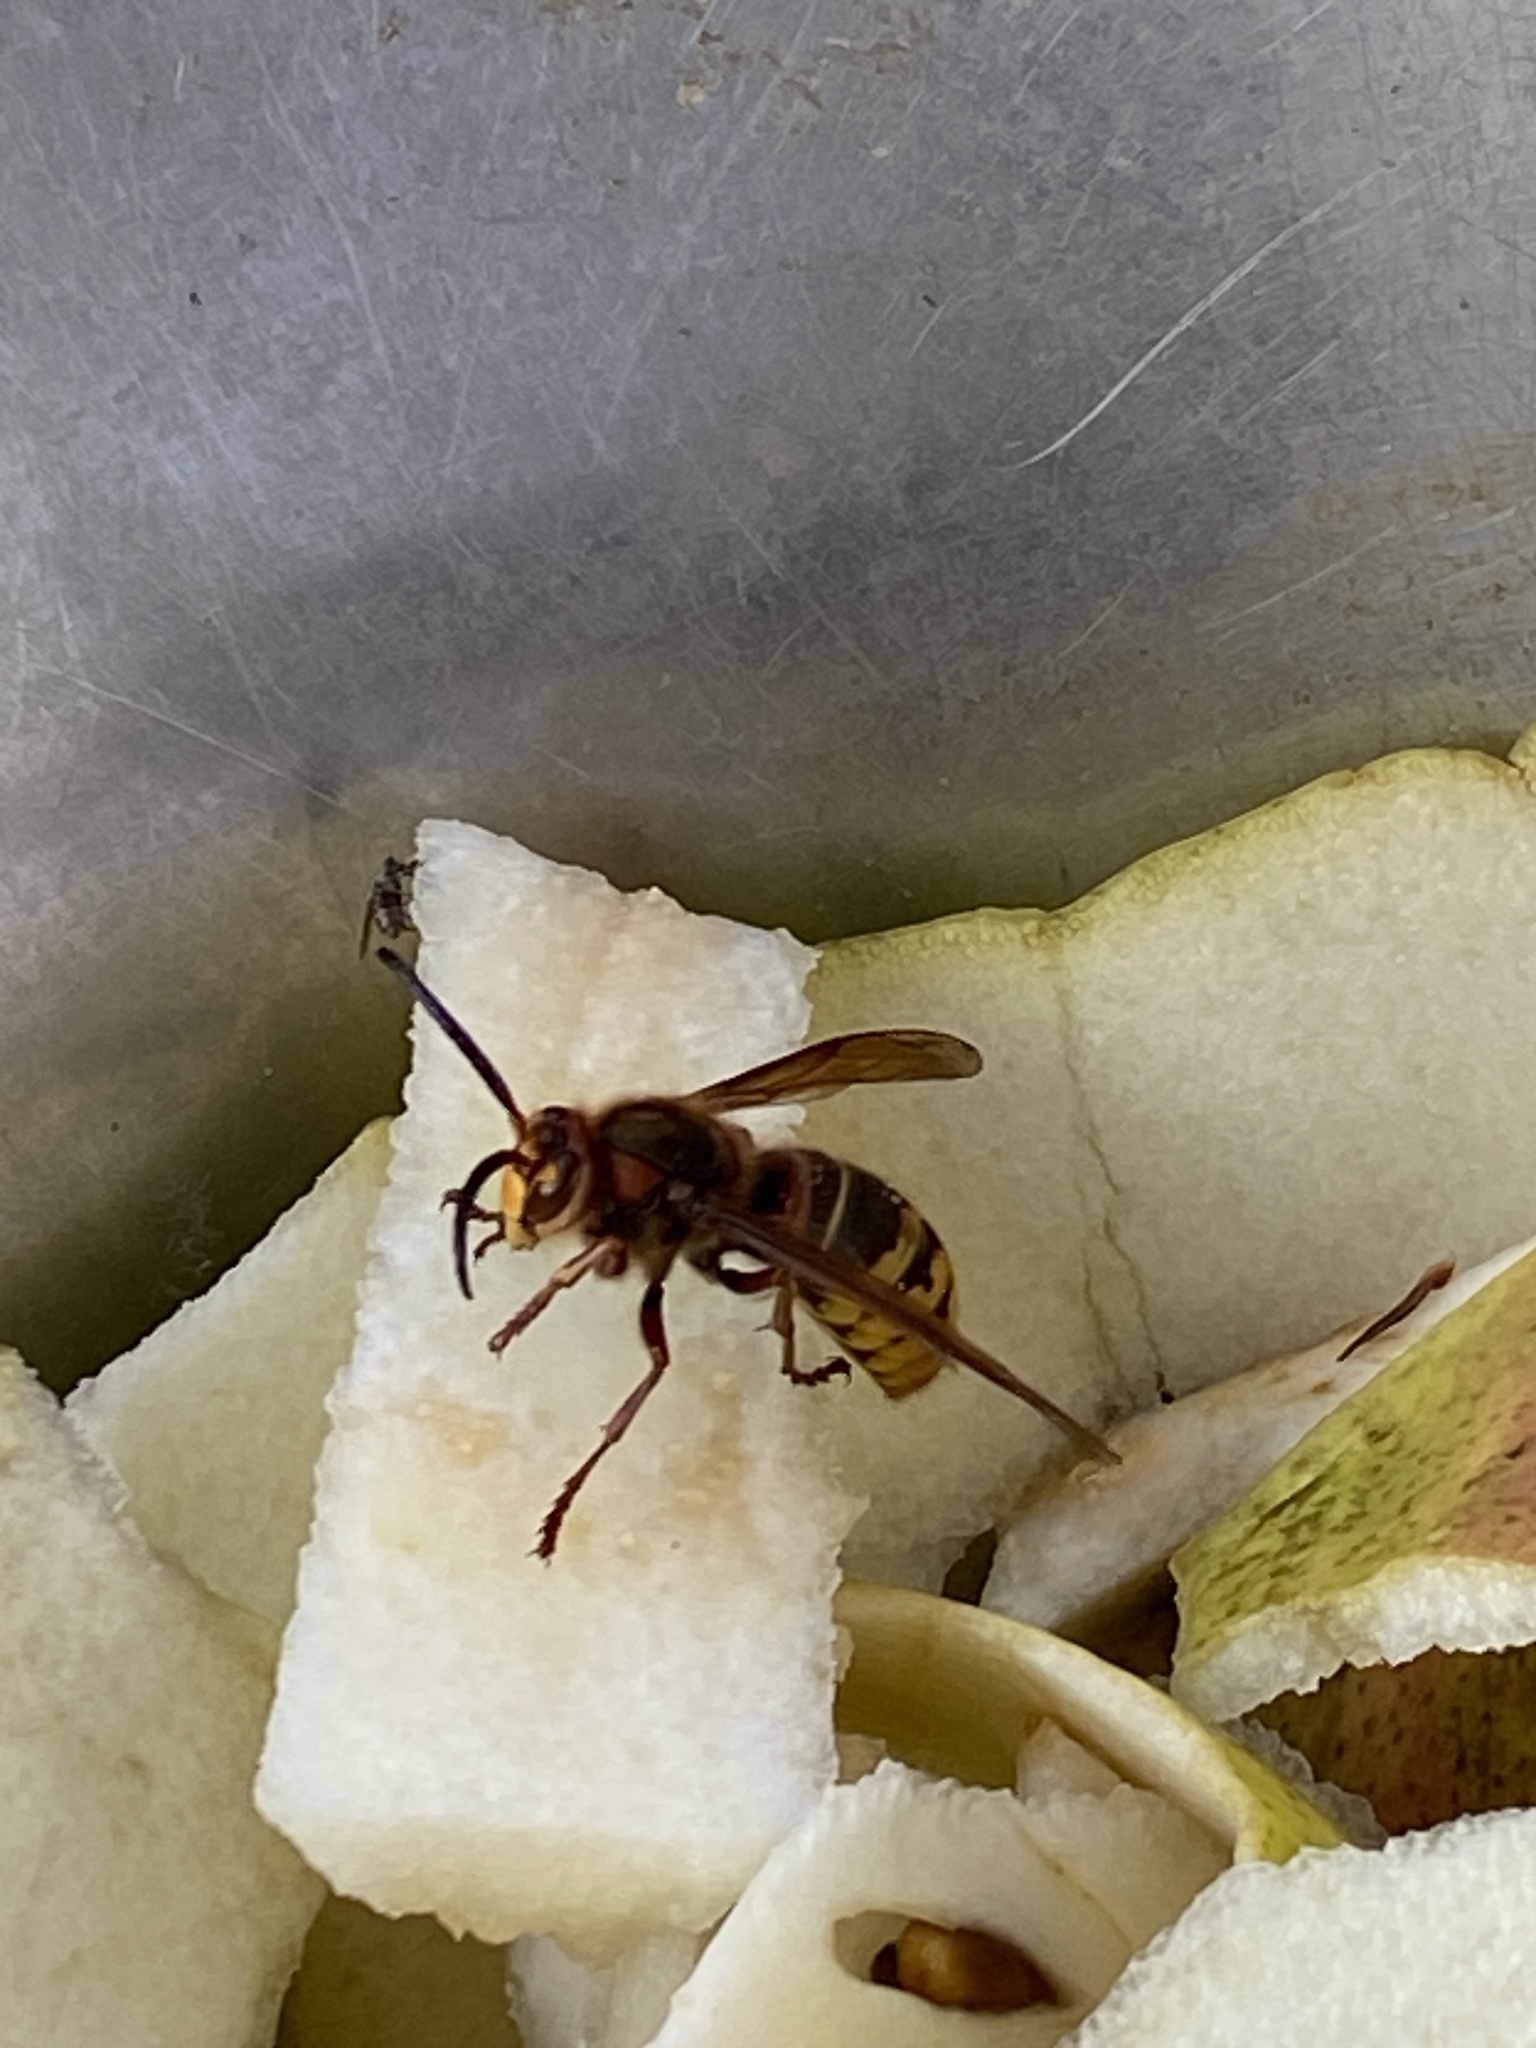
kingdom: Animalia
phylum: Arthropoda
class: Insecta
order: Hymenoptera
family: Vespidae
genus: Vespa
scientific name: Vespa crabro
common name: Hornet
